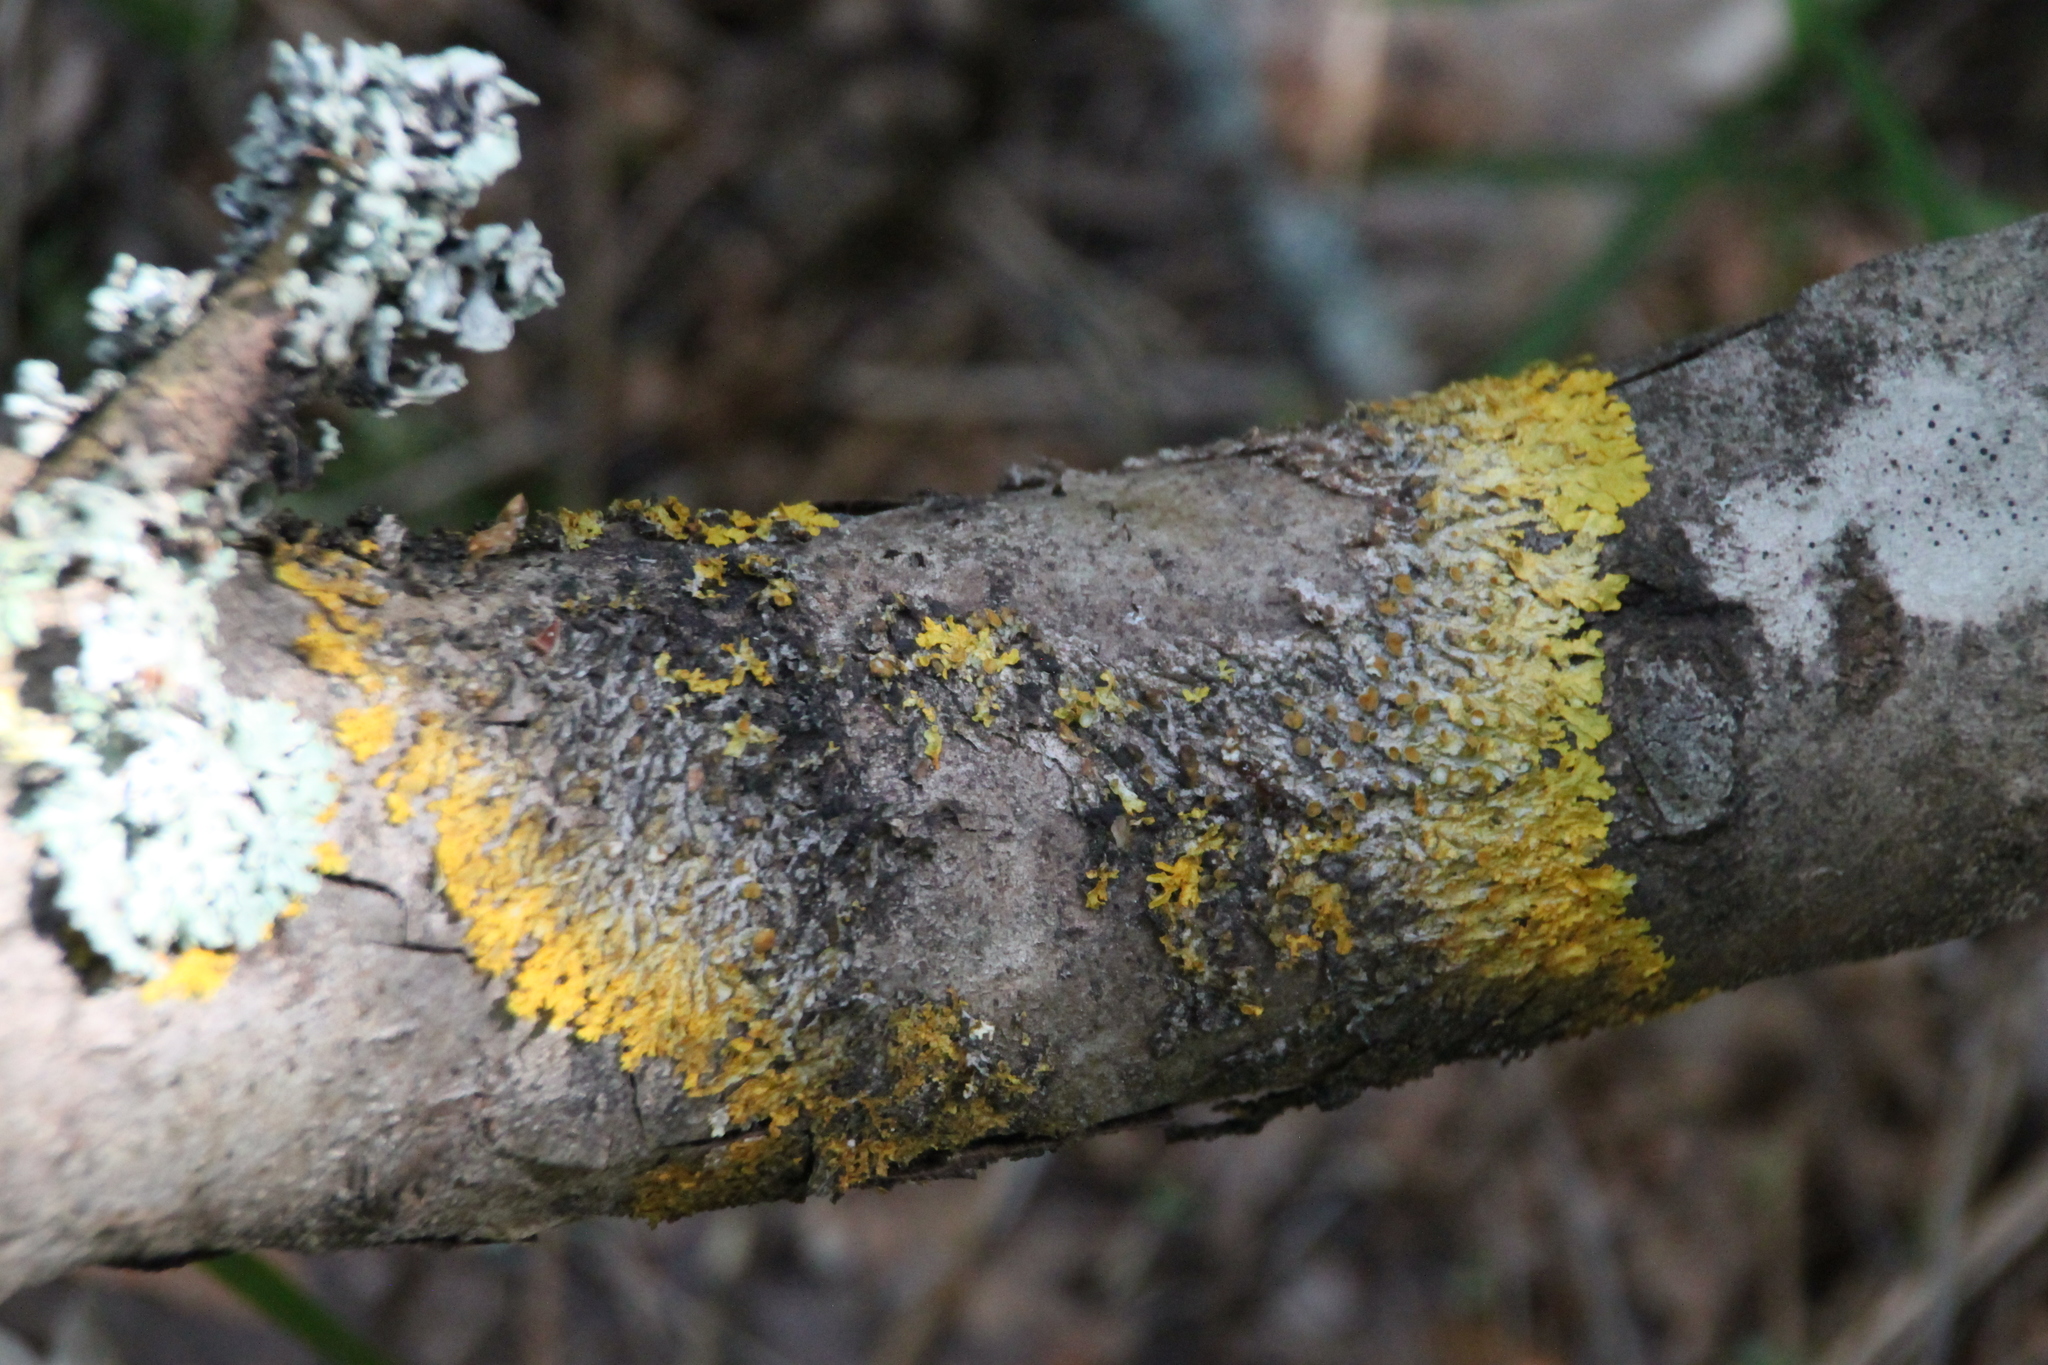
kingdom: Fungi
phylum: Ascomycota
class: Lecanoromycetes
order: Teloschistales
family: Teloschistaceae
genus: Xanthoria
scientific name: Xanthoria parietina
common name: Common orange lichen
